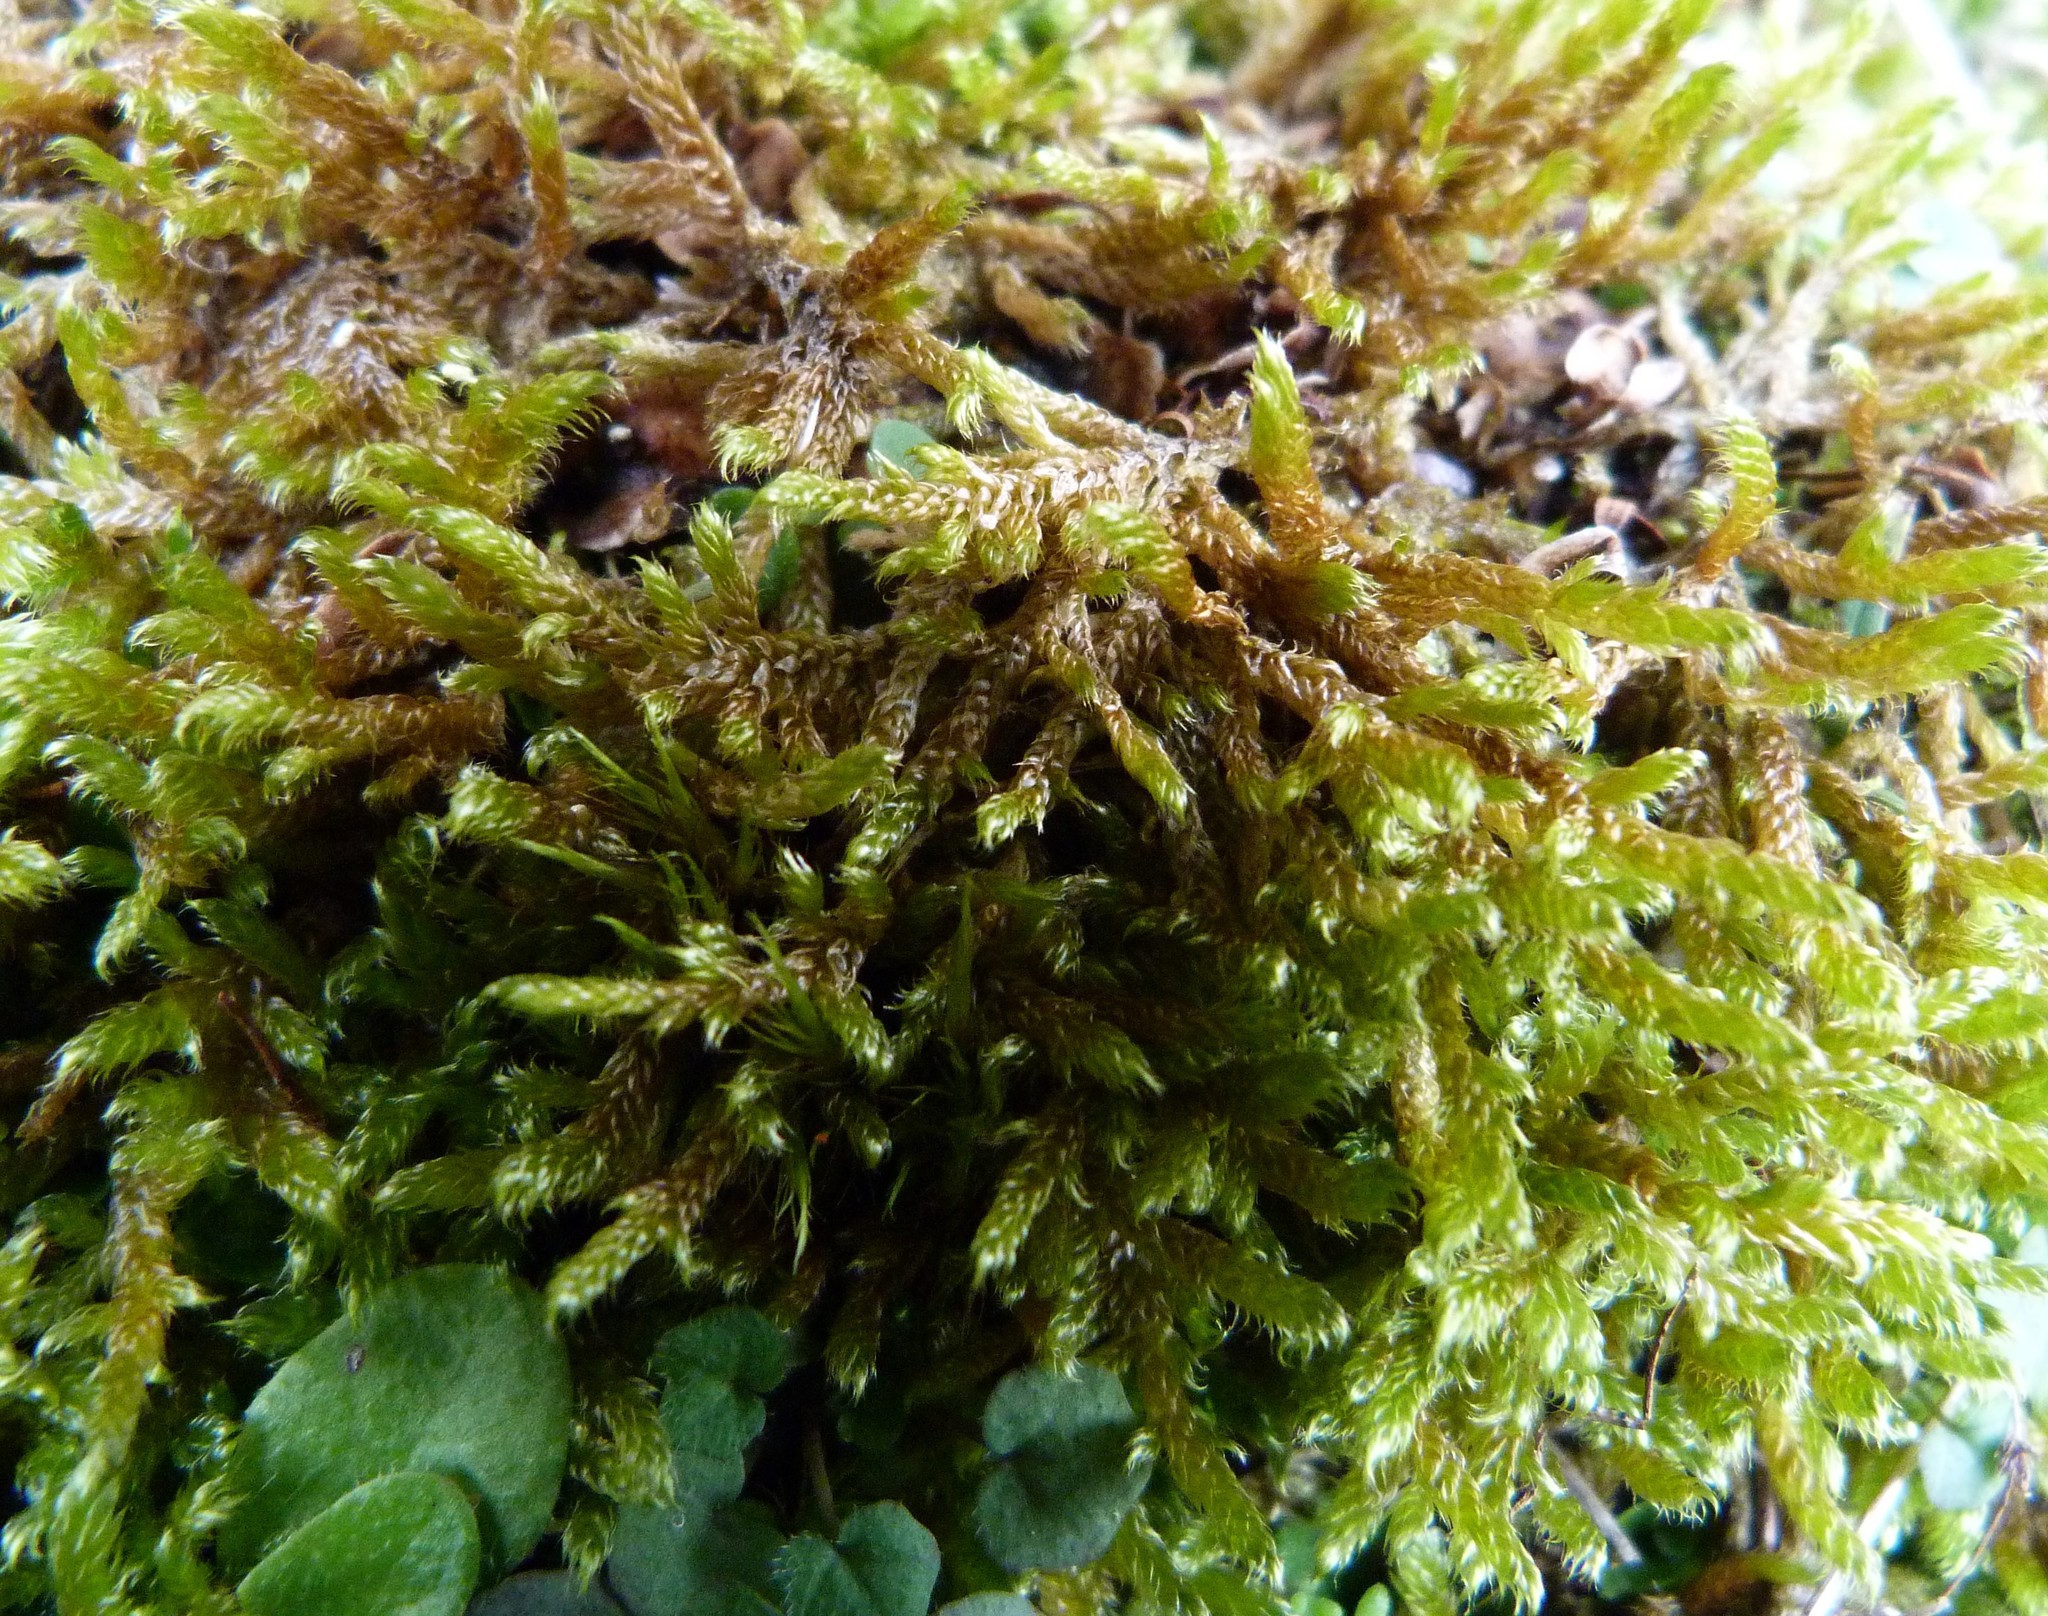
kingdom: Plantae
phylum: Bryophyta
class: Bryopsida
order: Hypnales
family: Hypnaceae
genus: Hypnum
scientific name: Hypnum cupressiforme
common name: Cypress-leaved plait-moss
